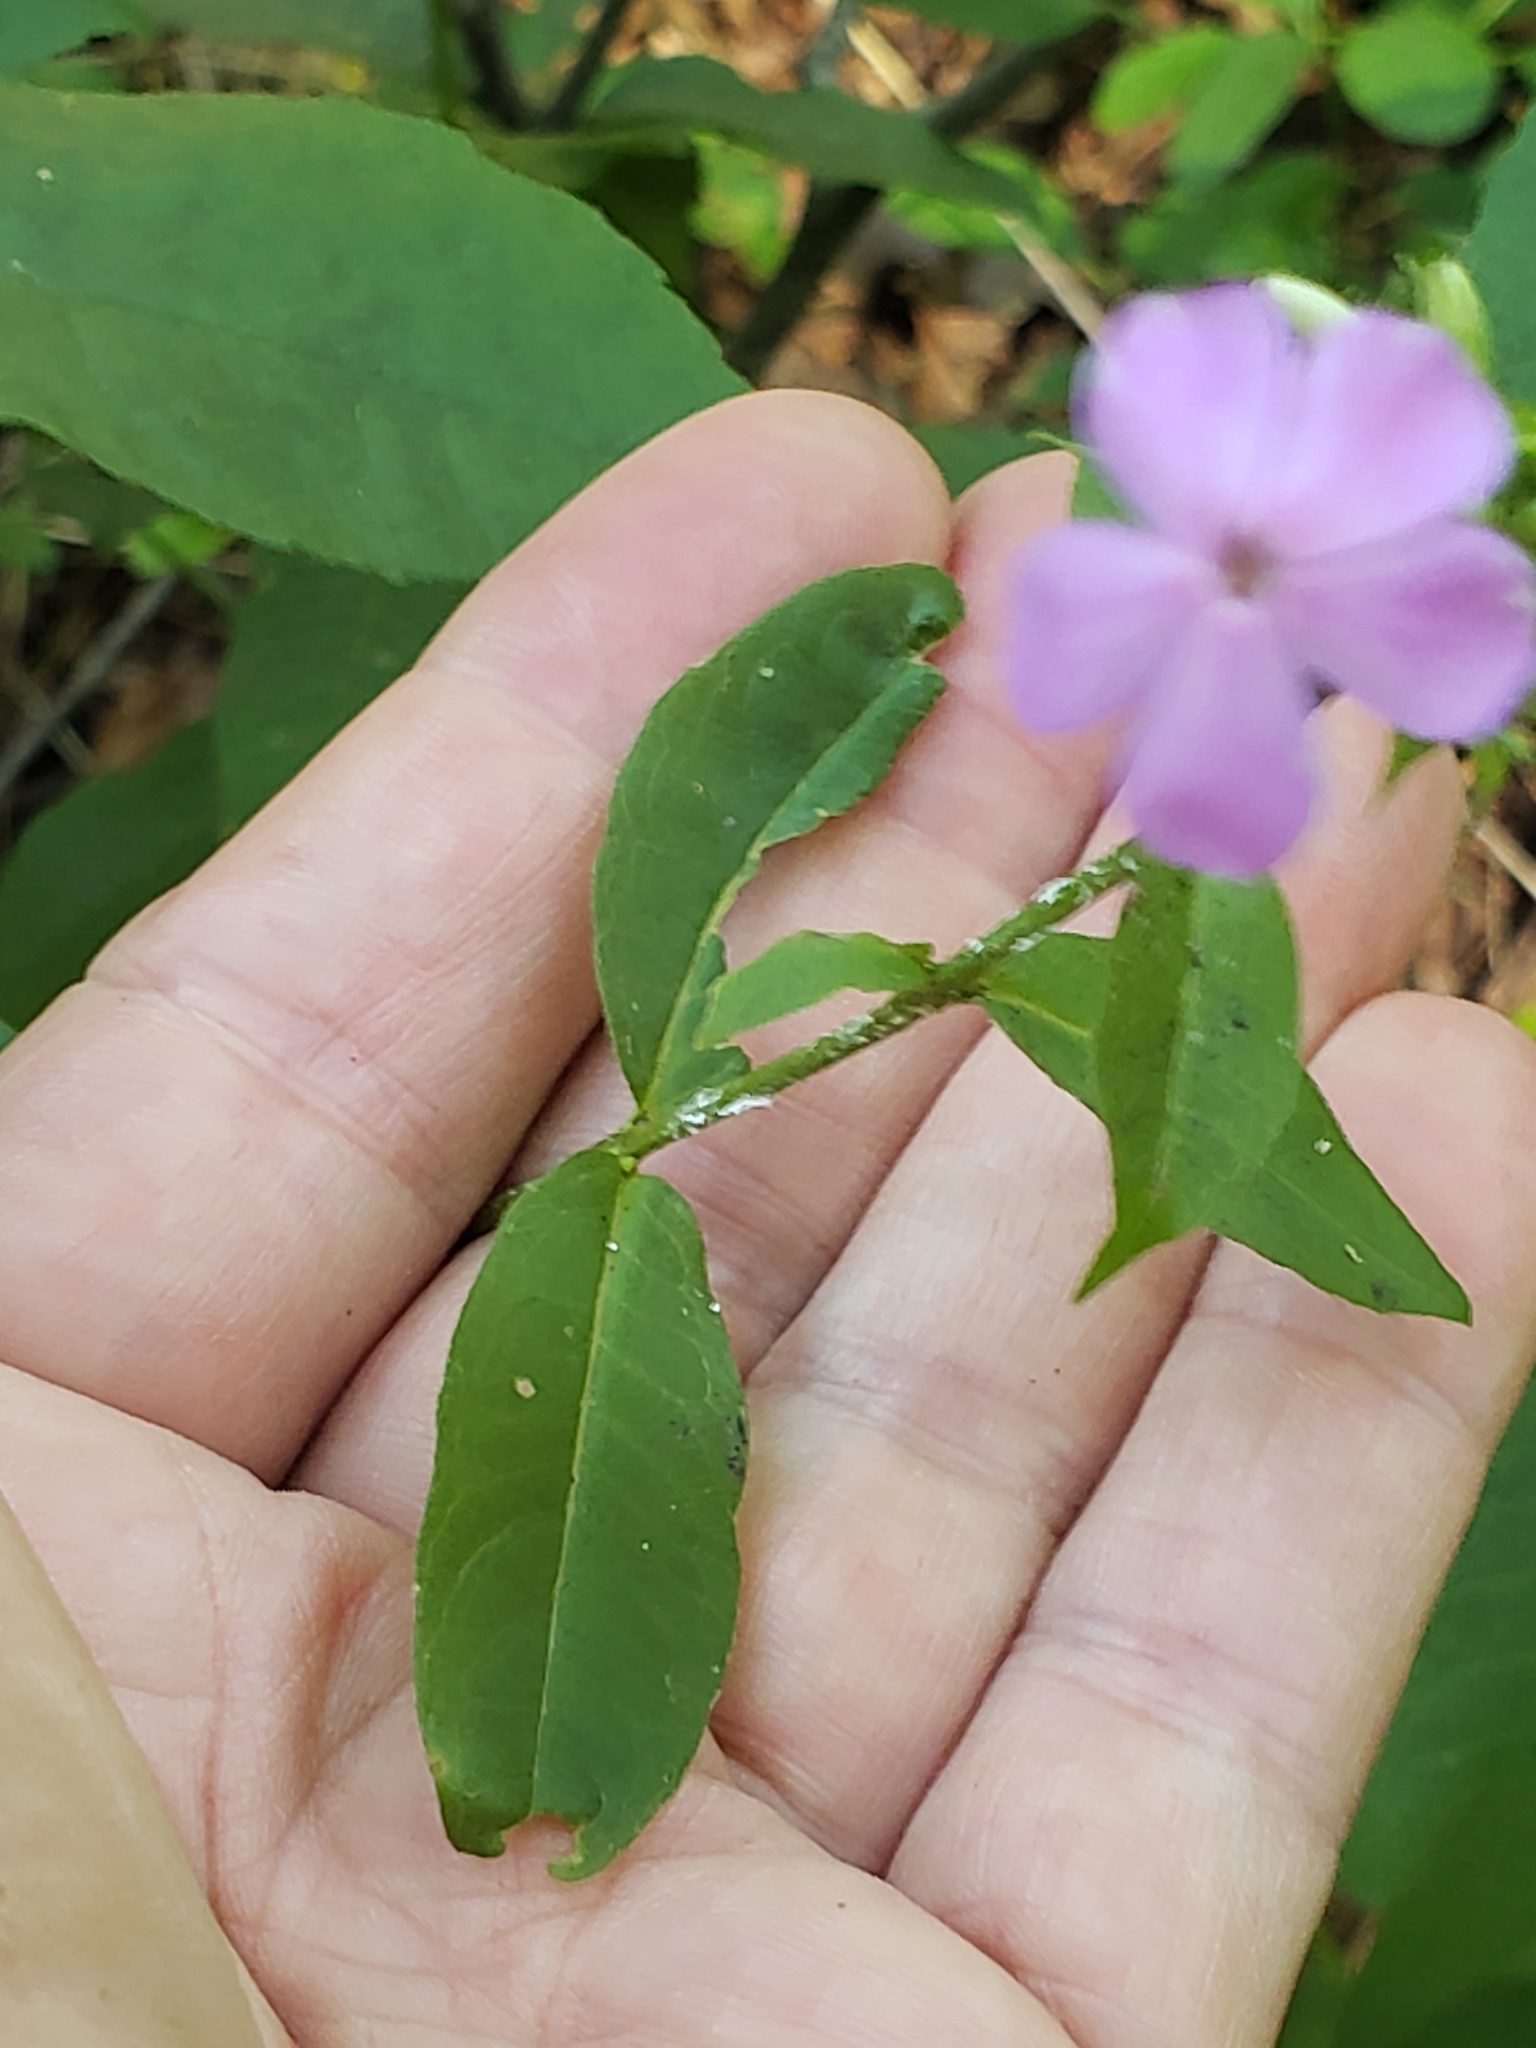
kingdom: Plantae
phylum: Tracheophyta
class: Magnoliopsida
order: Ericales
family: Polemoniaceae
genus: Phlox
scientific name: Phlox paniculata
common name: Fall phlox
